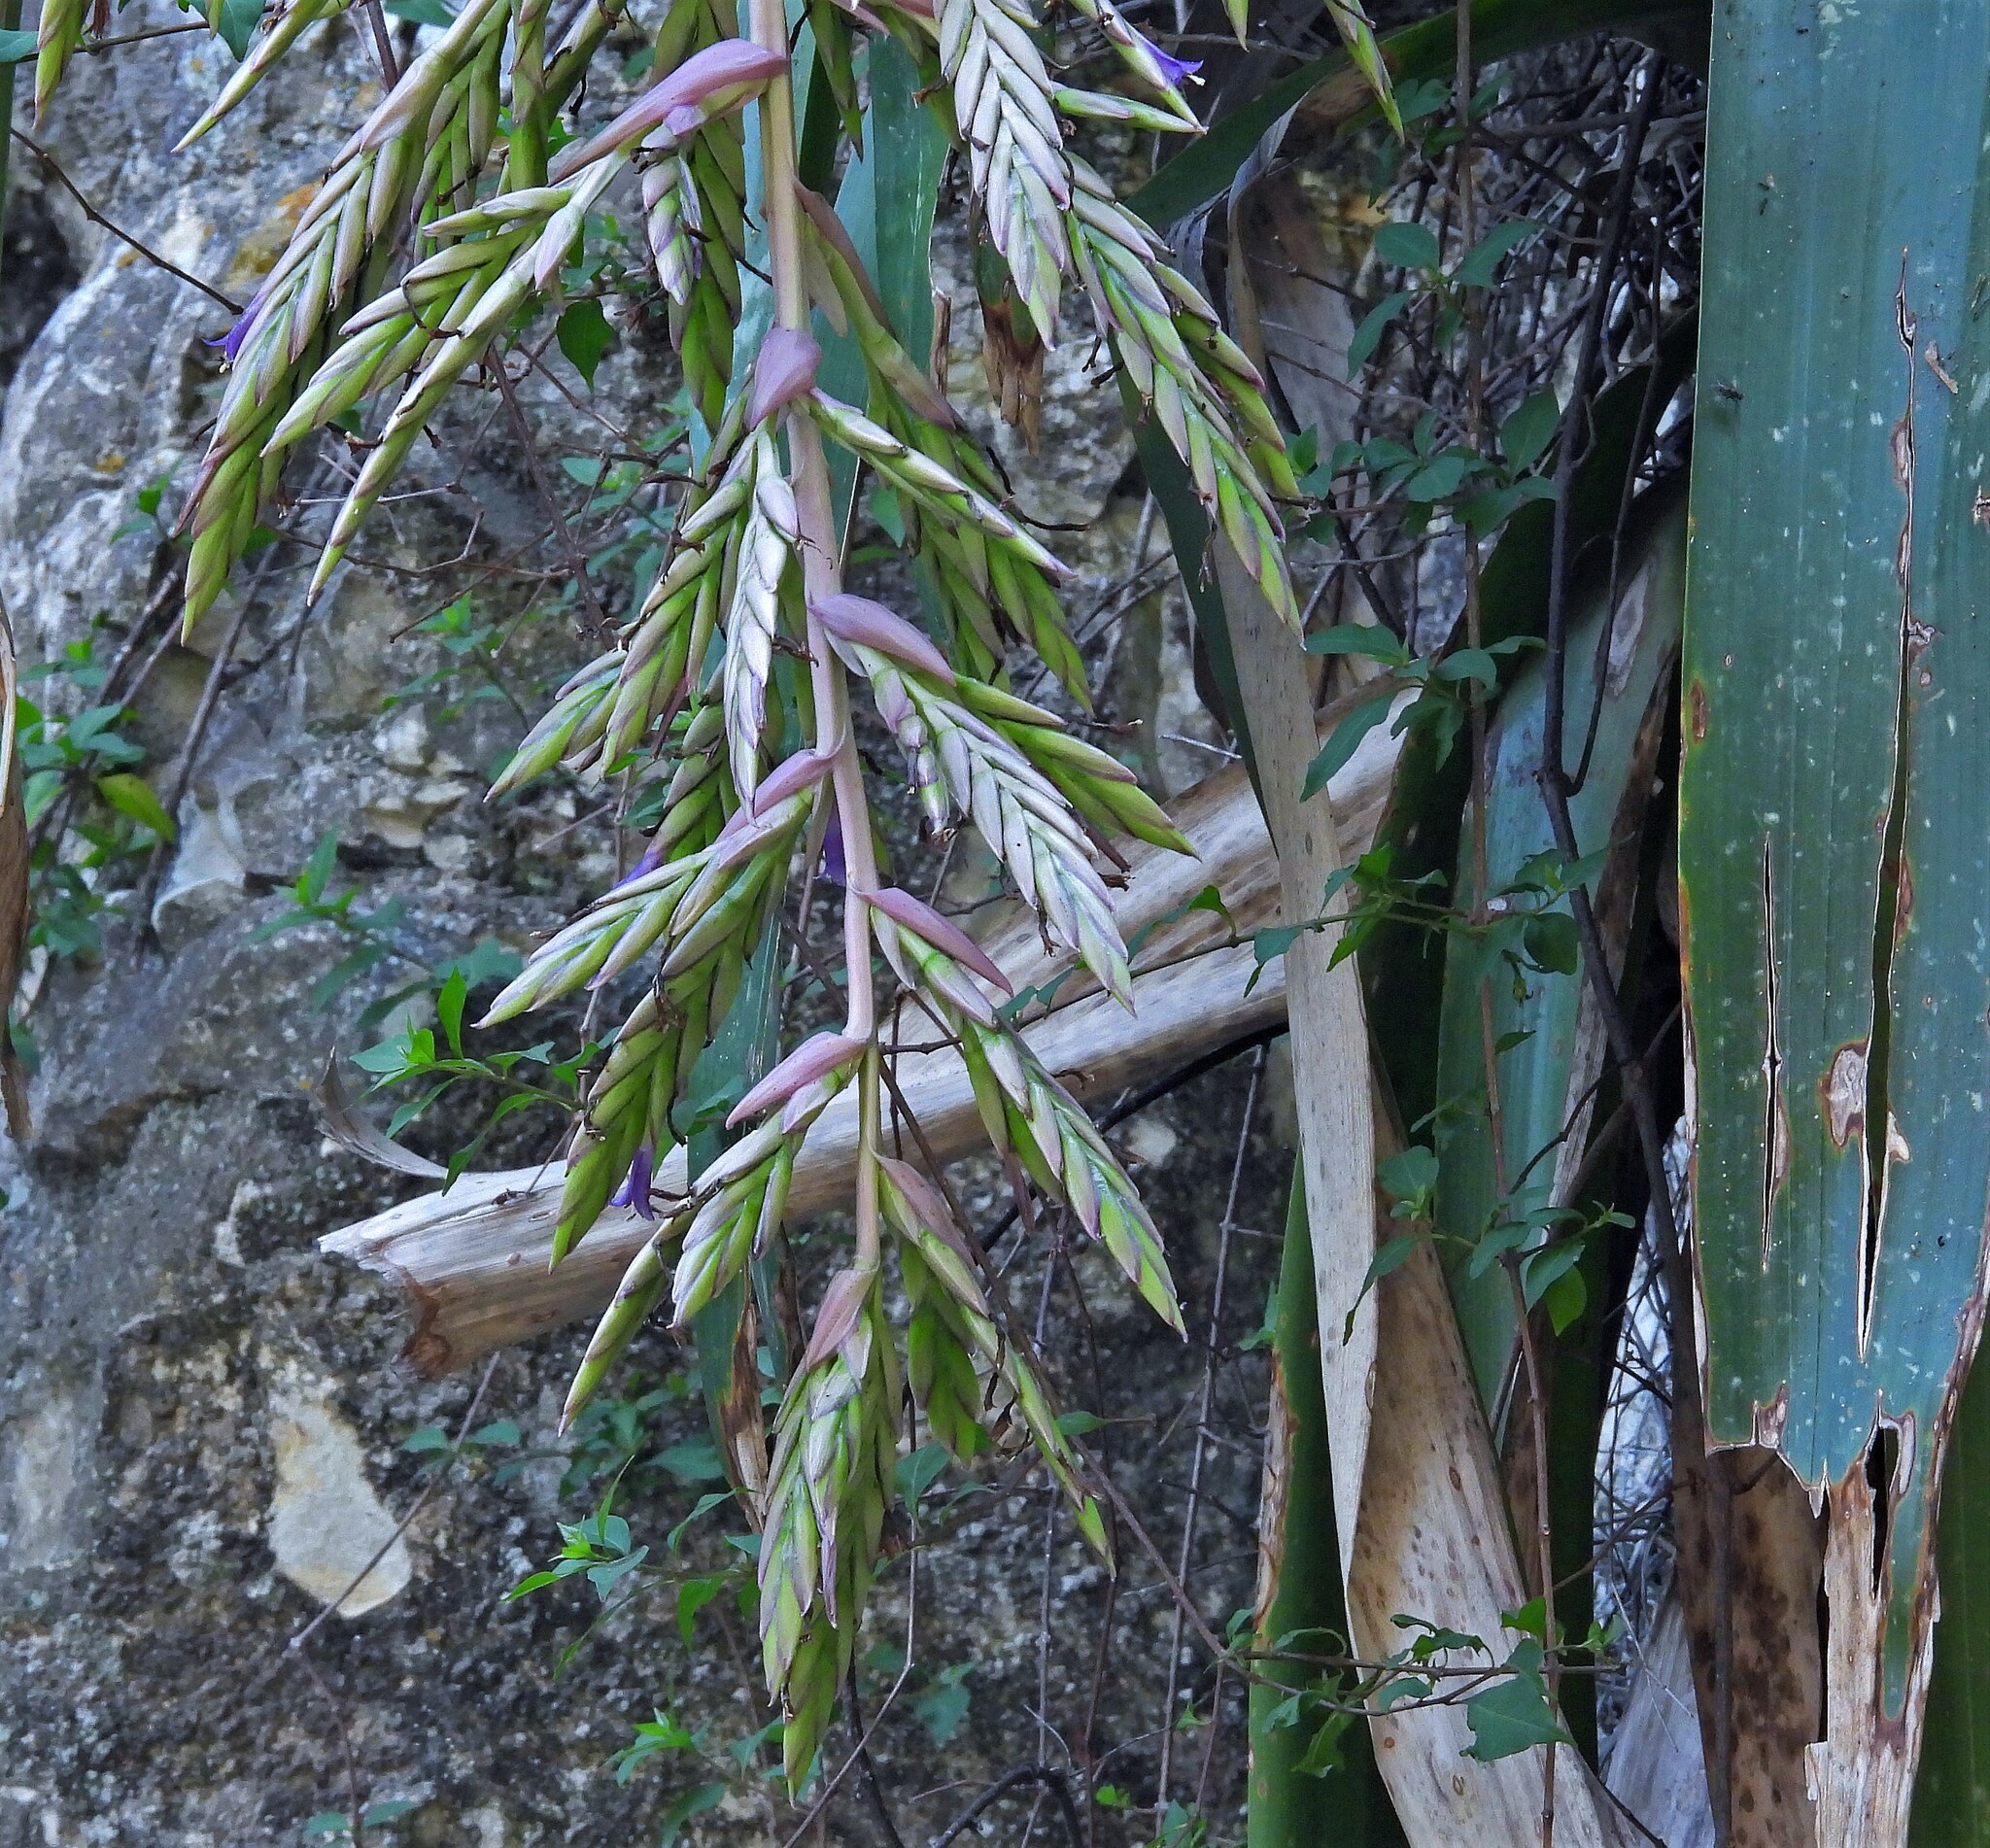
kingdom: Plantae
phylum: Tracheophyta
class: Liliopsida
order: Poales
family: Bromeliaceae
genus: Tillandsia
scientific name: Tillandsia australis
